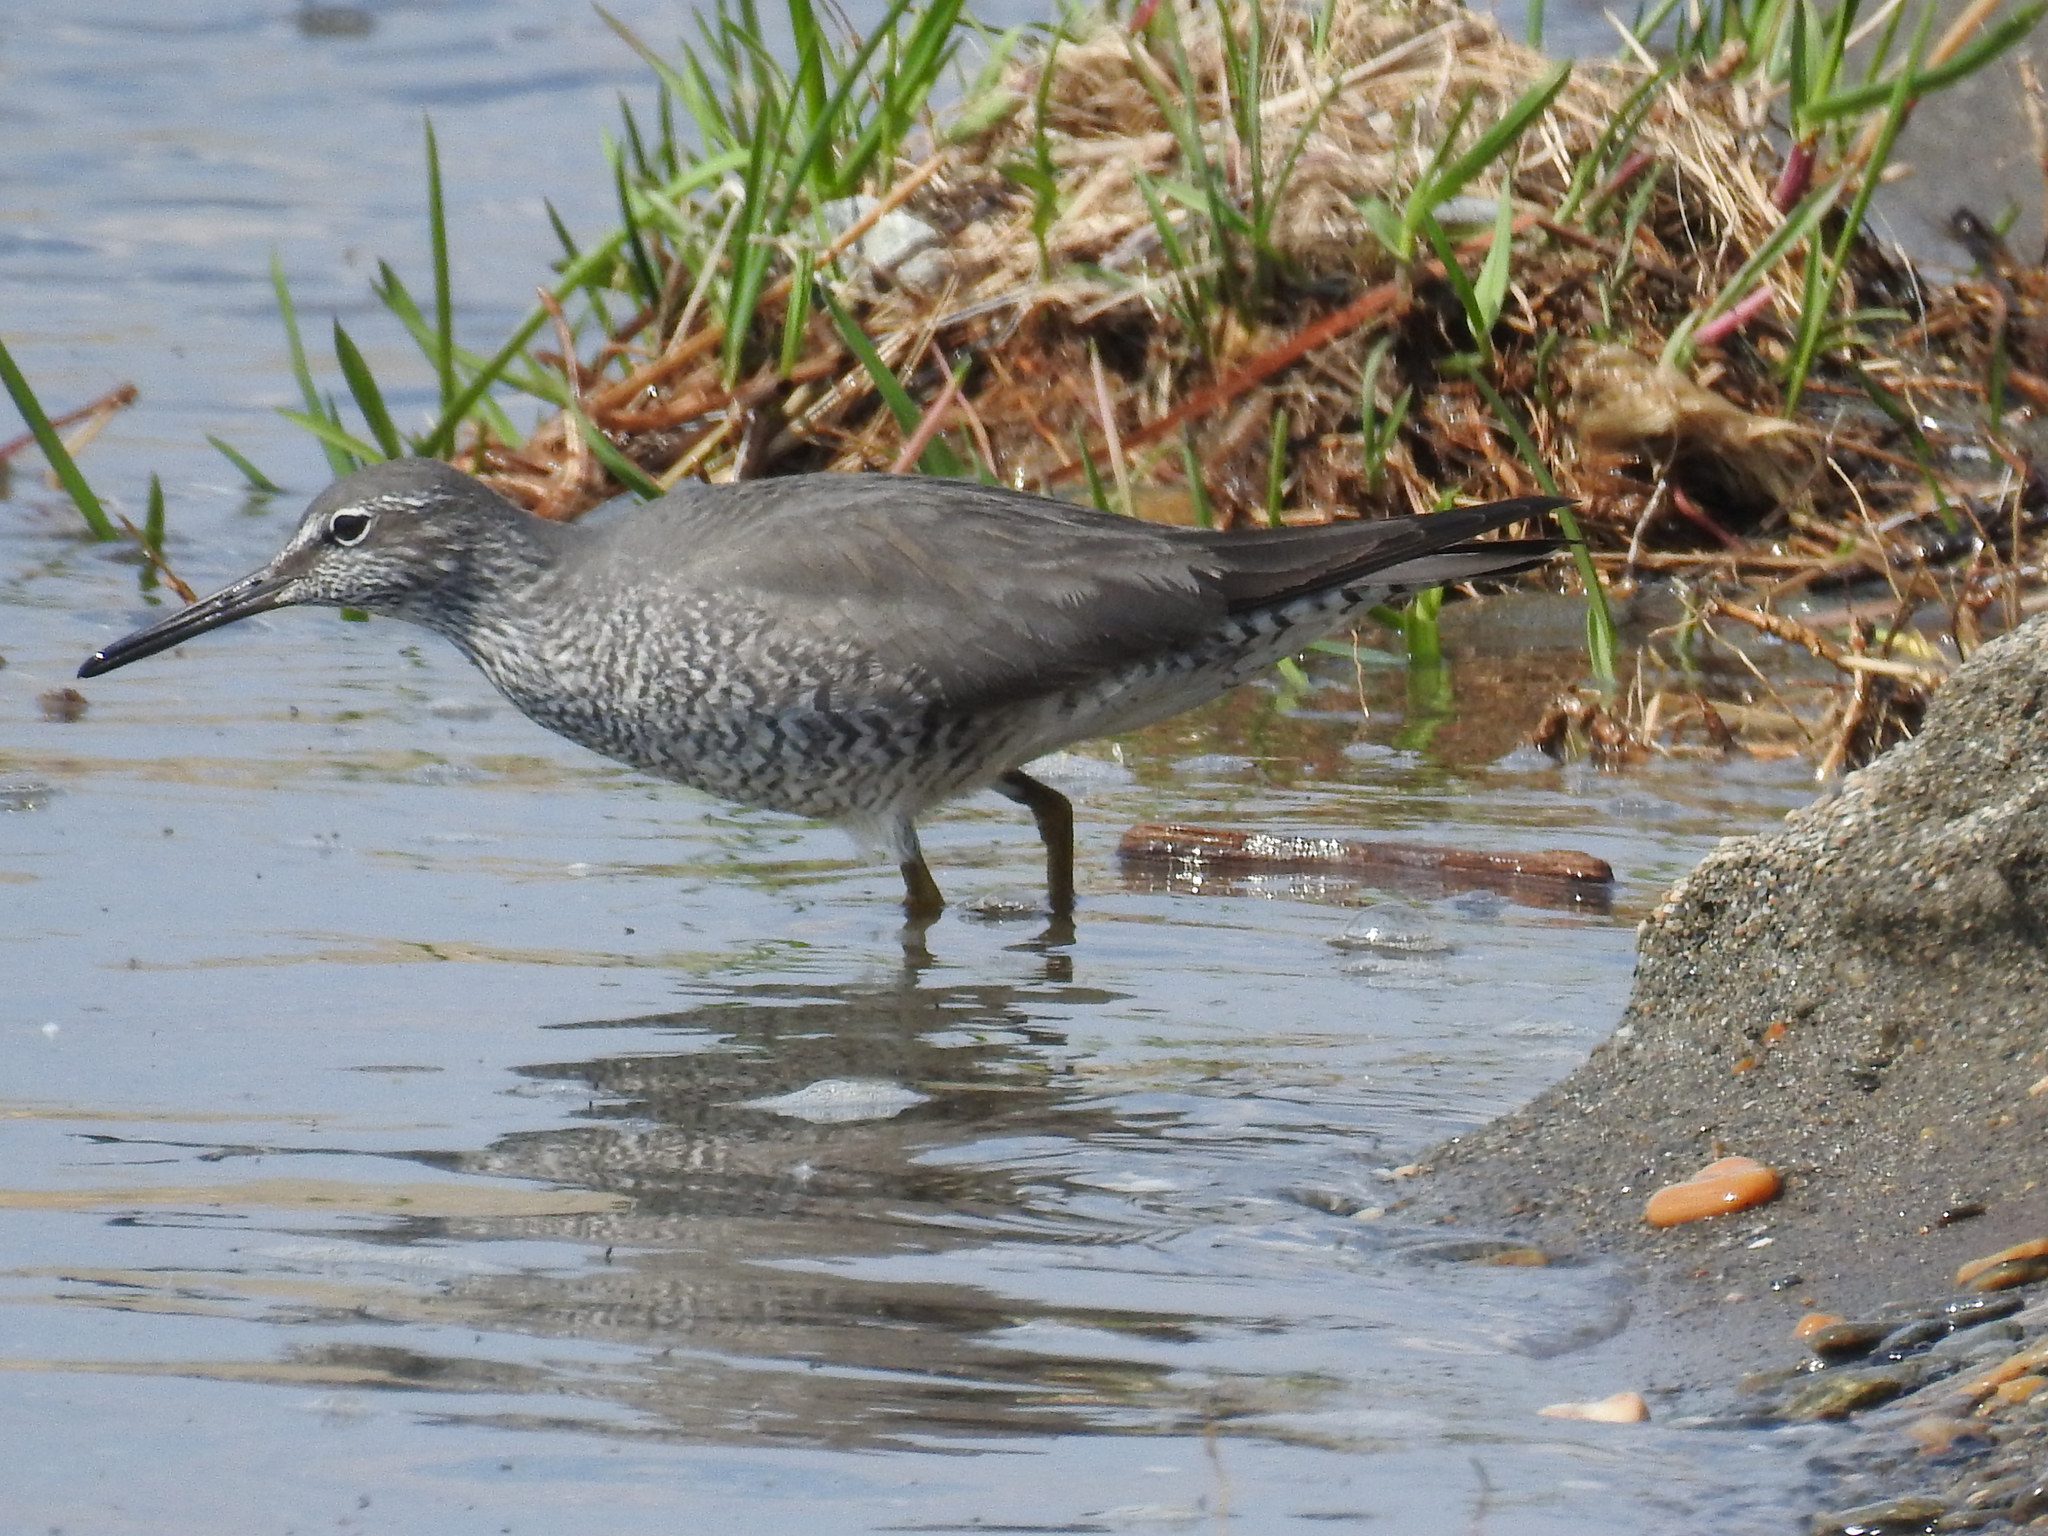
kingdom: Animalia
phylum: Chordata
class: Aves
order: Charadriiformes
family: Scolopacidae
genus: Tringa
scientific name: Tringa incana
